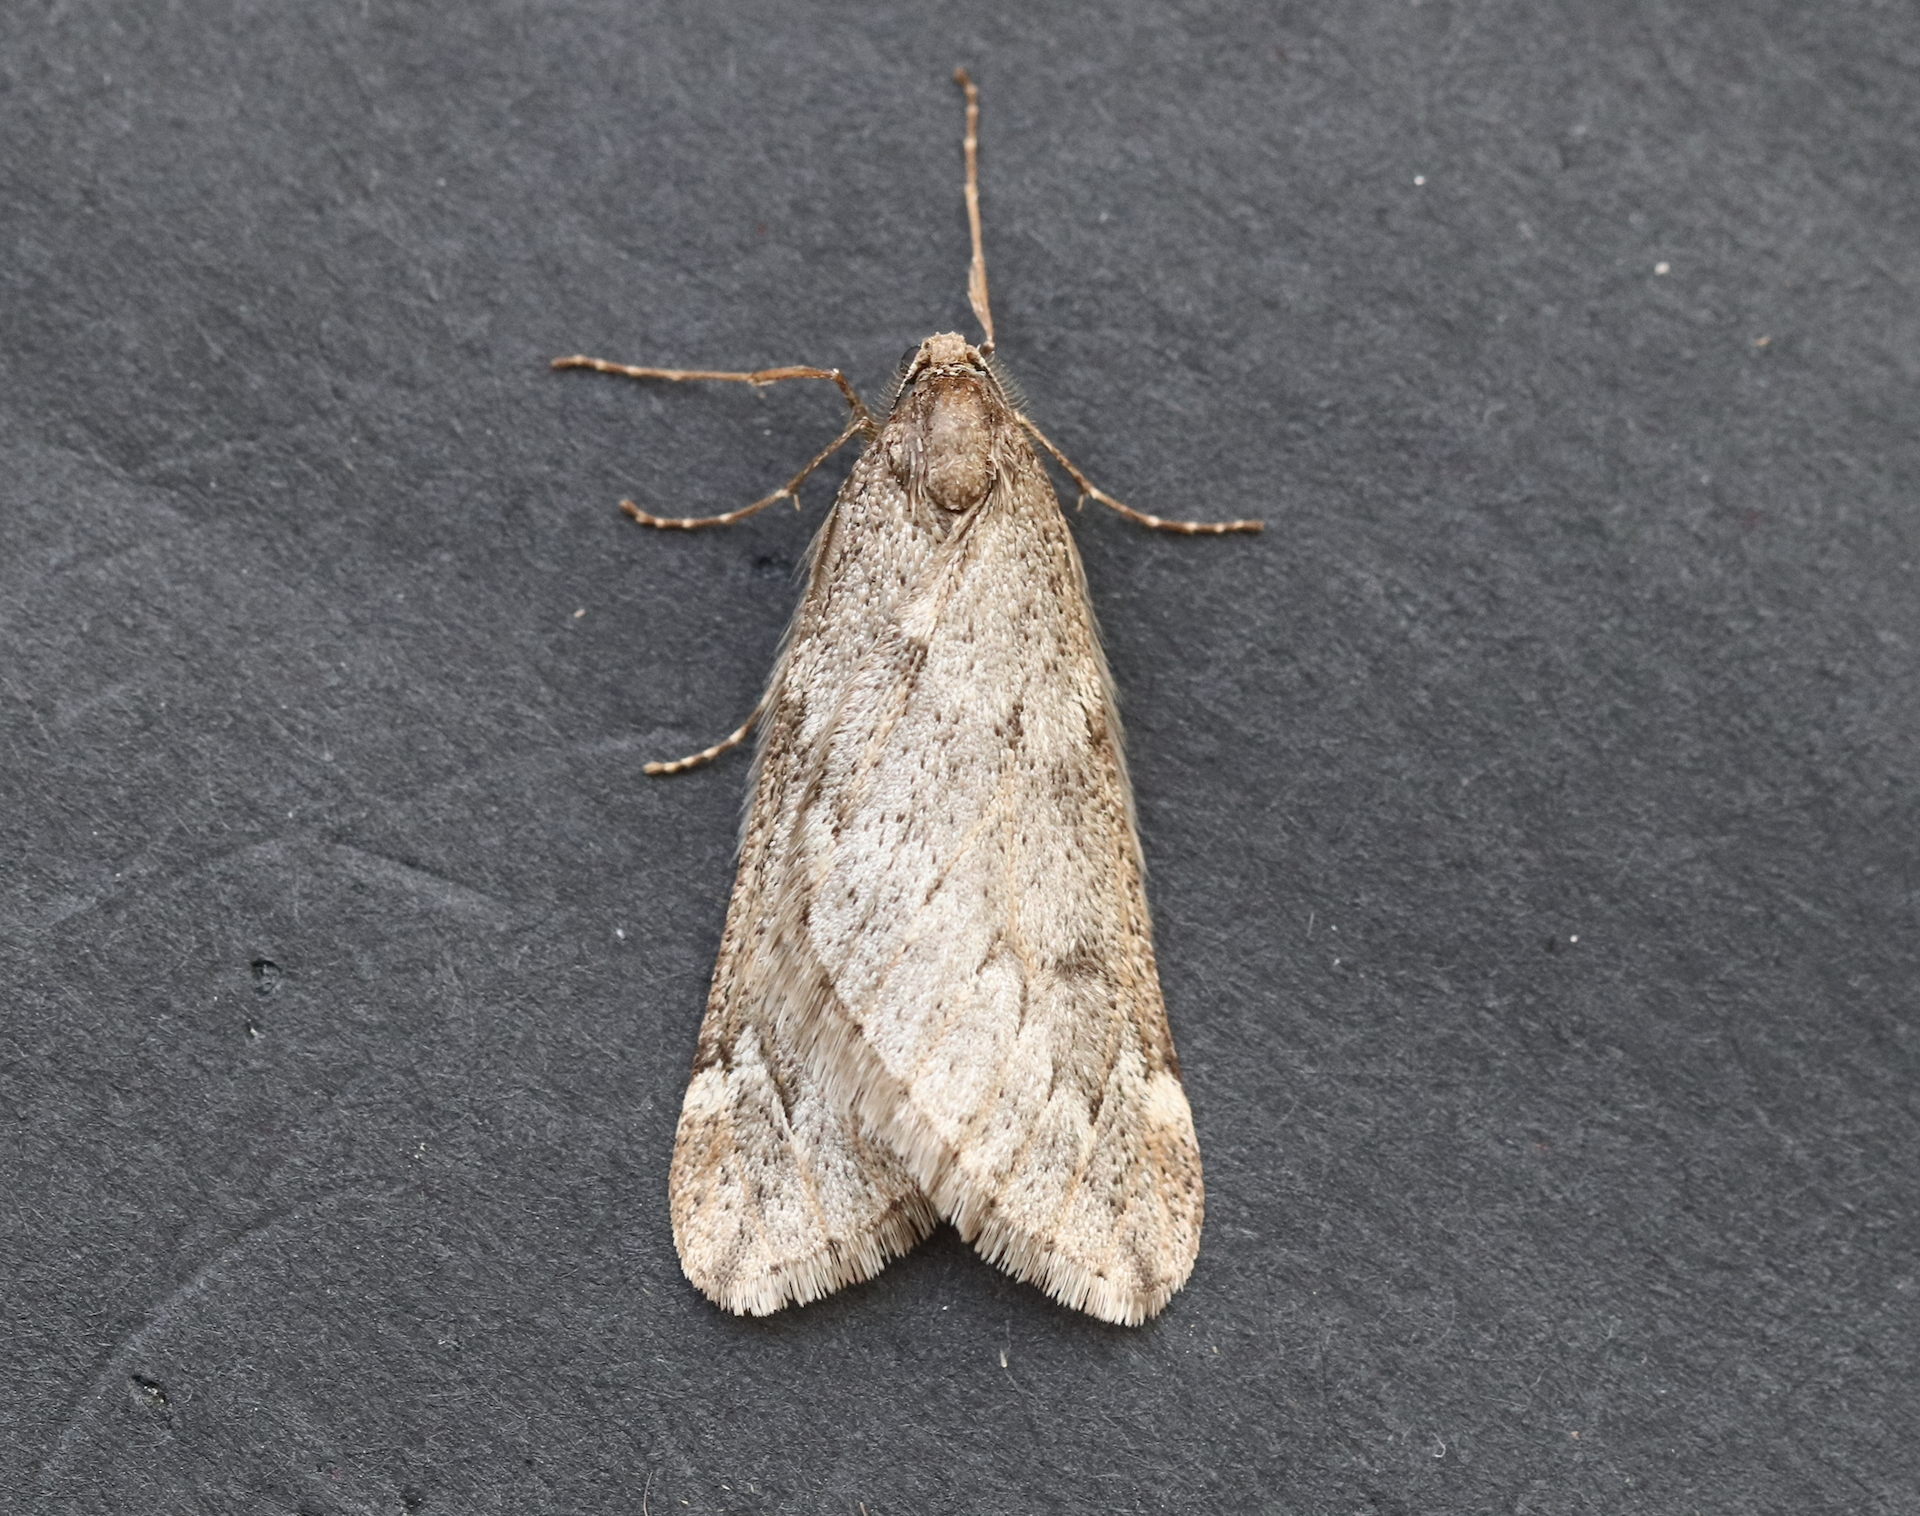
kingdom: Animalia
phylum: Arthropoda
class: Insecta
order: Lepidoptera
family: Geometridae
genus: Alsophila
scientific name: Alsophila aescularia
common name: March moth
